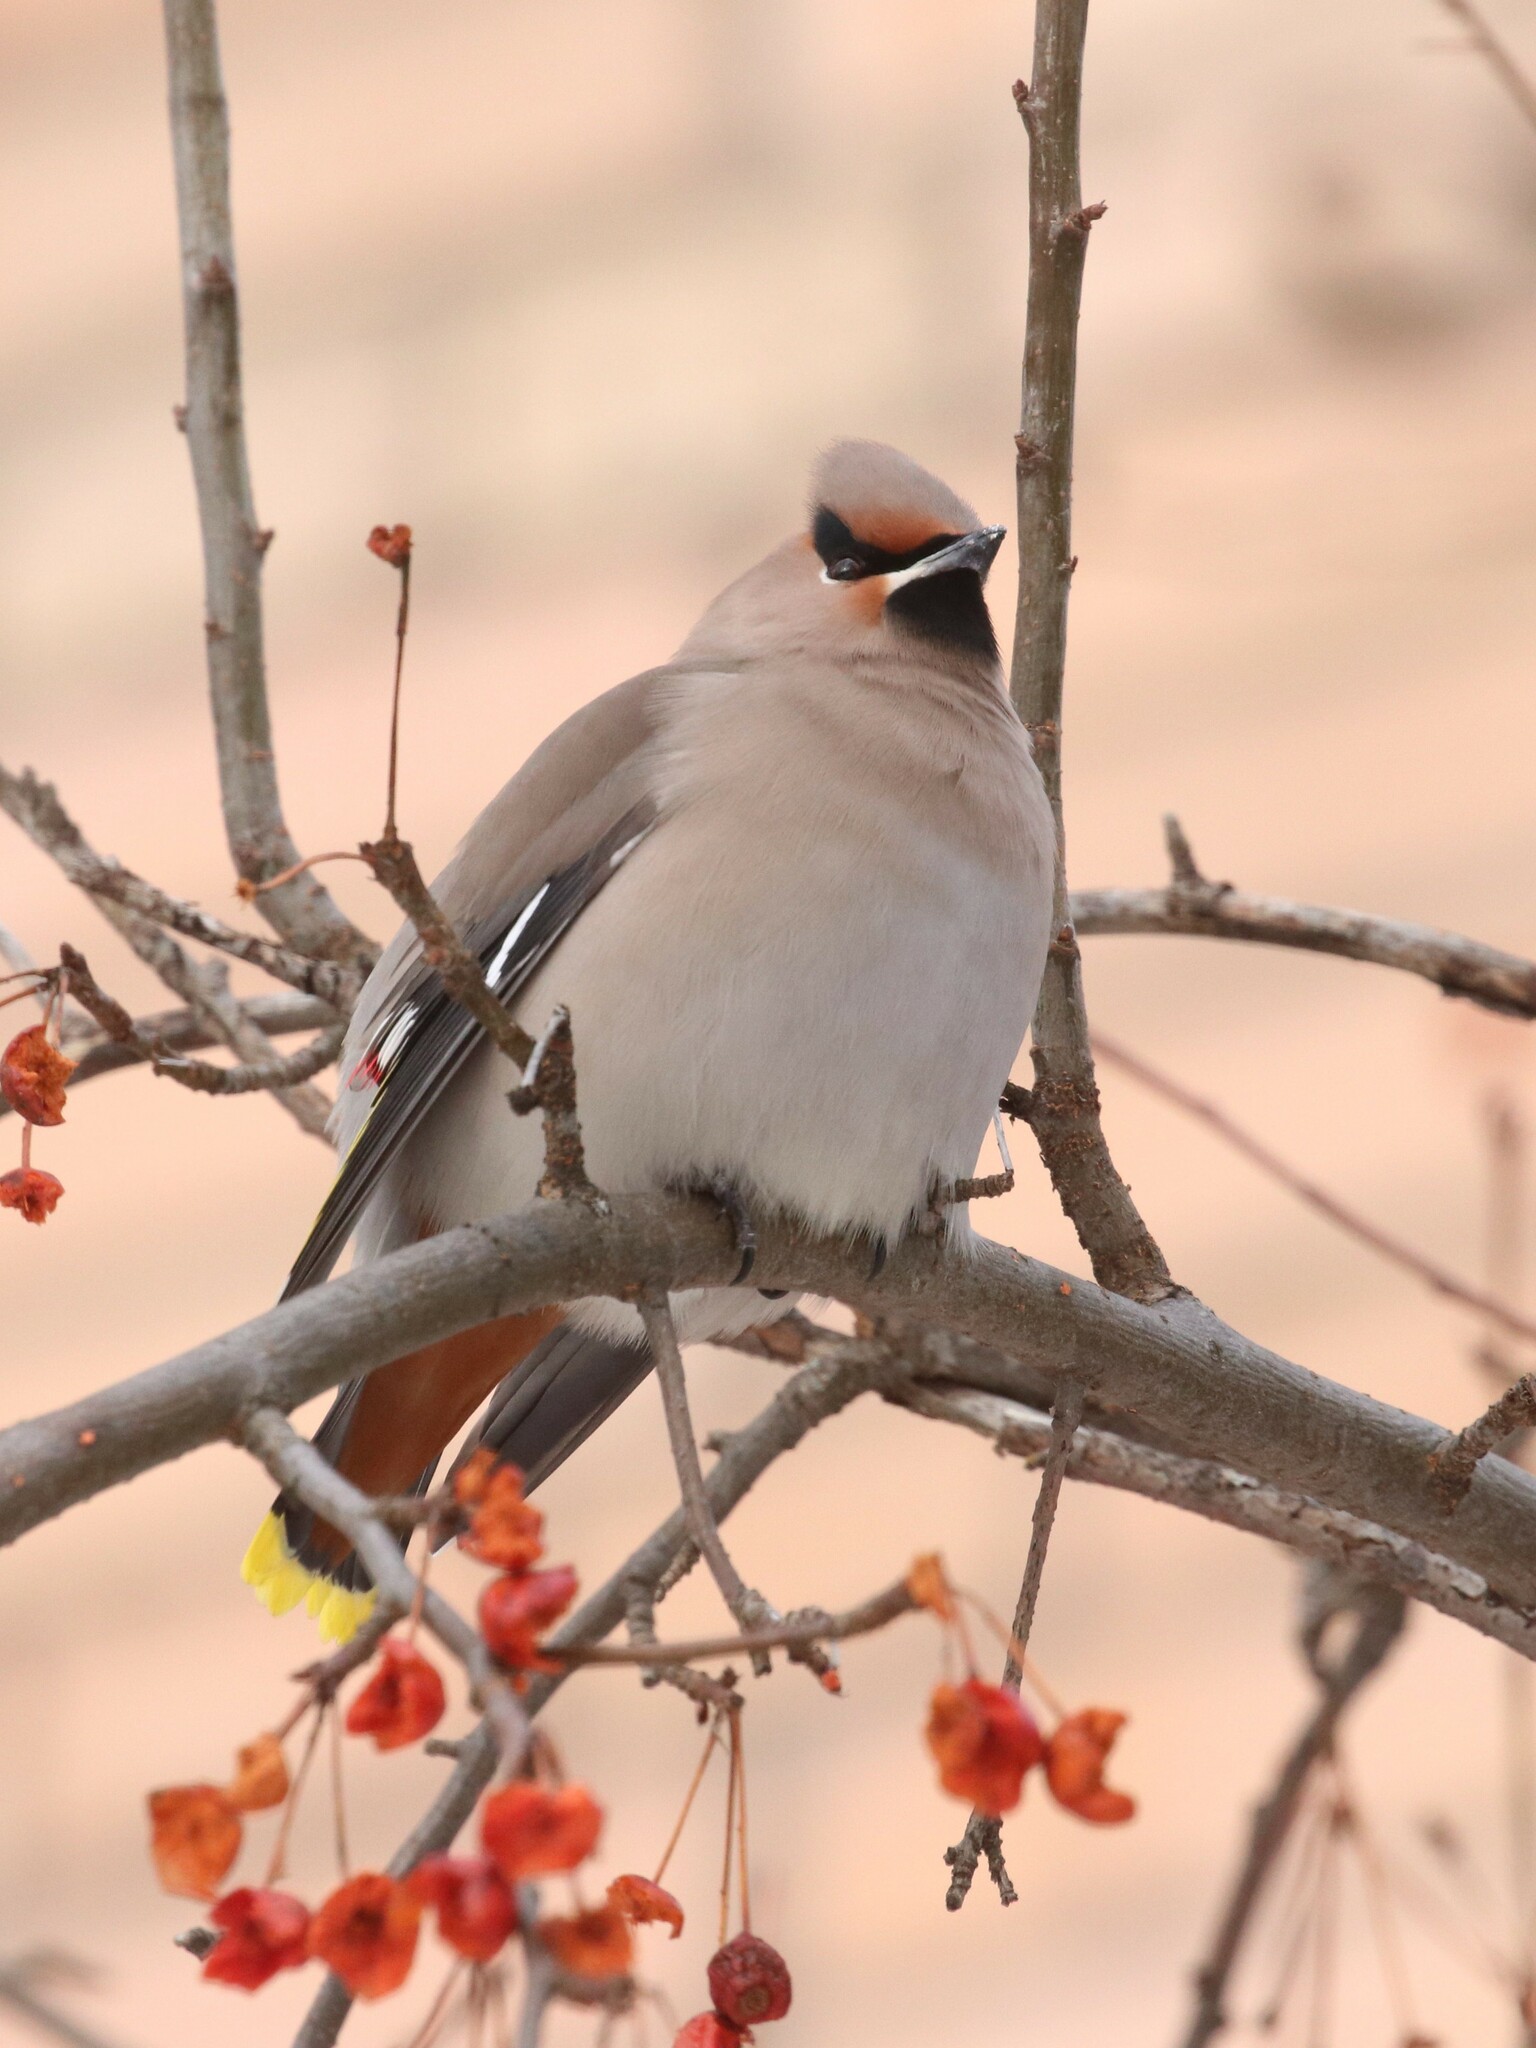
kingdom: Animalia
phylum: Chordata
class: Aves
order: Passeriformes
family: Bombycillidae
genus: Bombycilla
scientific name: Bombycilla garrulus
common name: Bohemian waxwing
